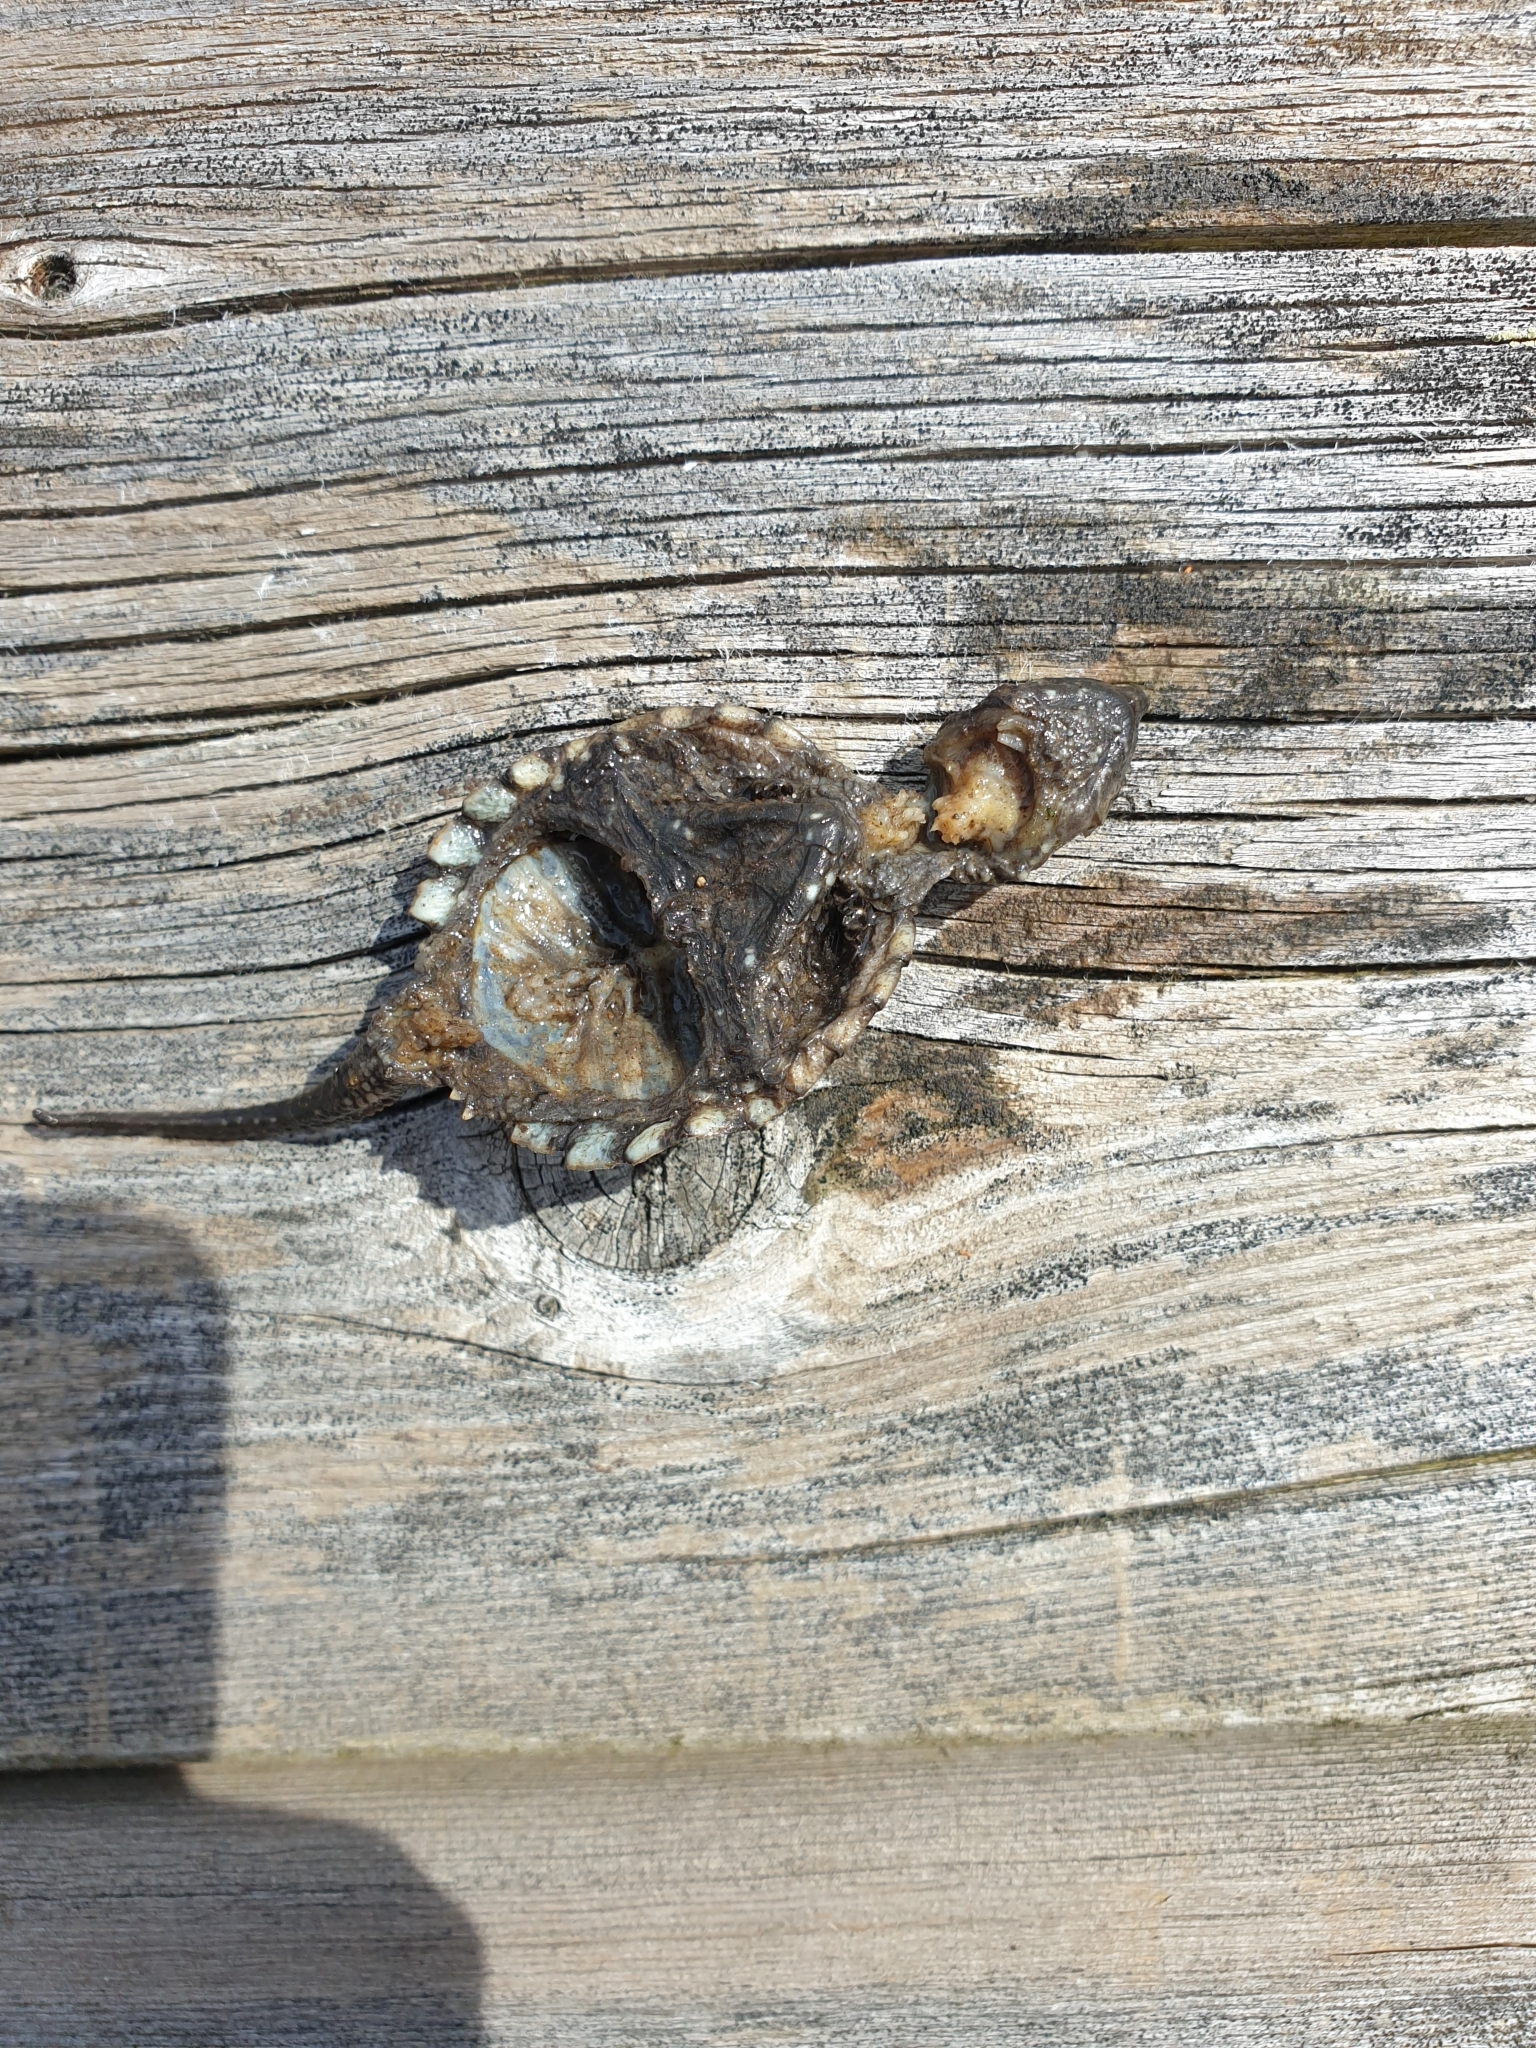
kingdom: Animalia
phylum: Chordata
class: Testudines
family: Chelydridae
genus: Chelydra
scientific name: Chelydra serpentina
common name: Common snapping turtle
